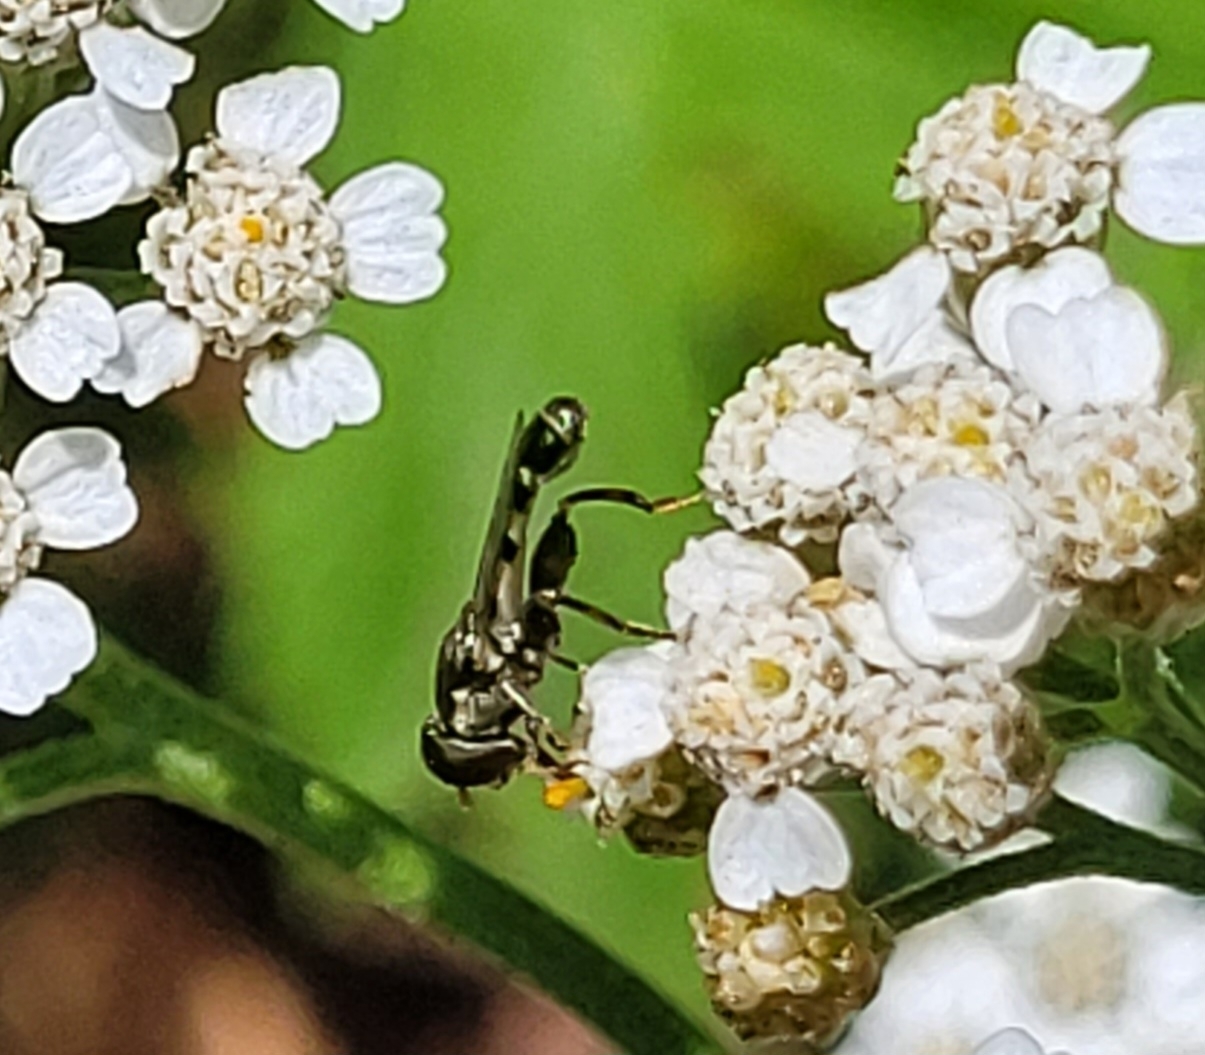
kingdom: Animalia
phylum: Arthropoda
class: Insecta
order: Diptera
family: Syrphidae
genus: Syritta
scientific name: Syritta pipiens
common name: Hover fly
